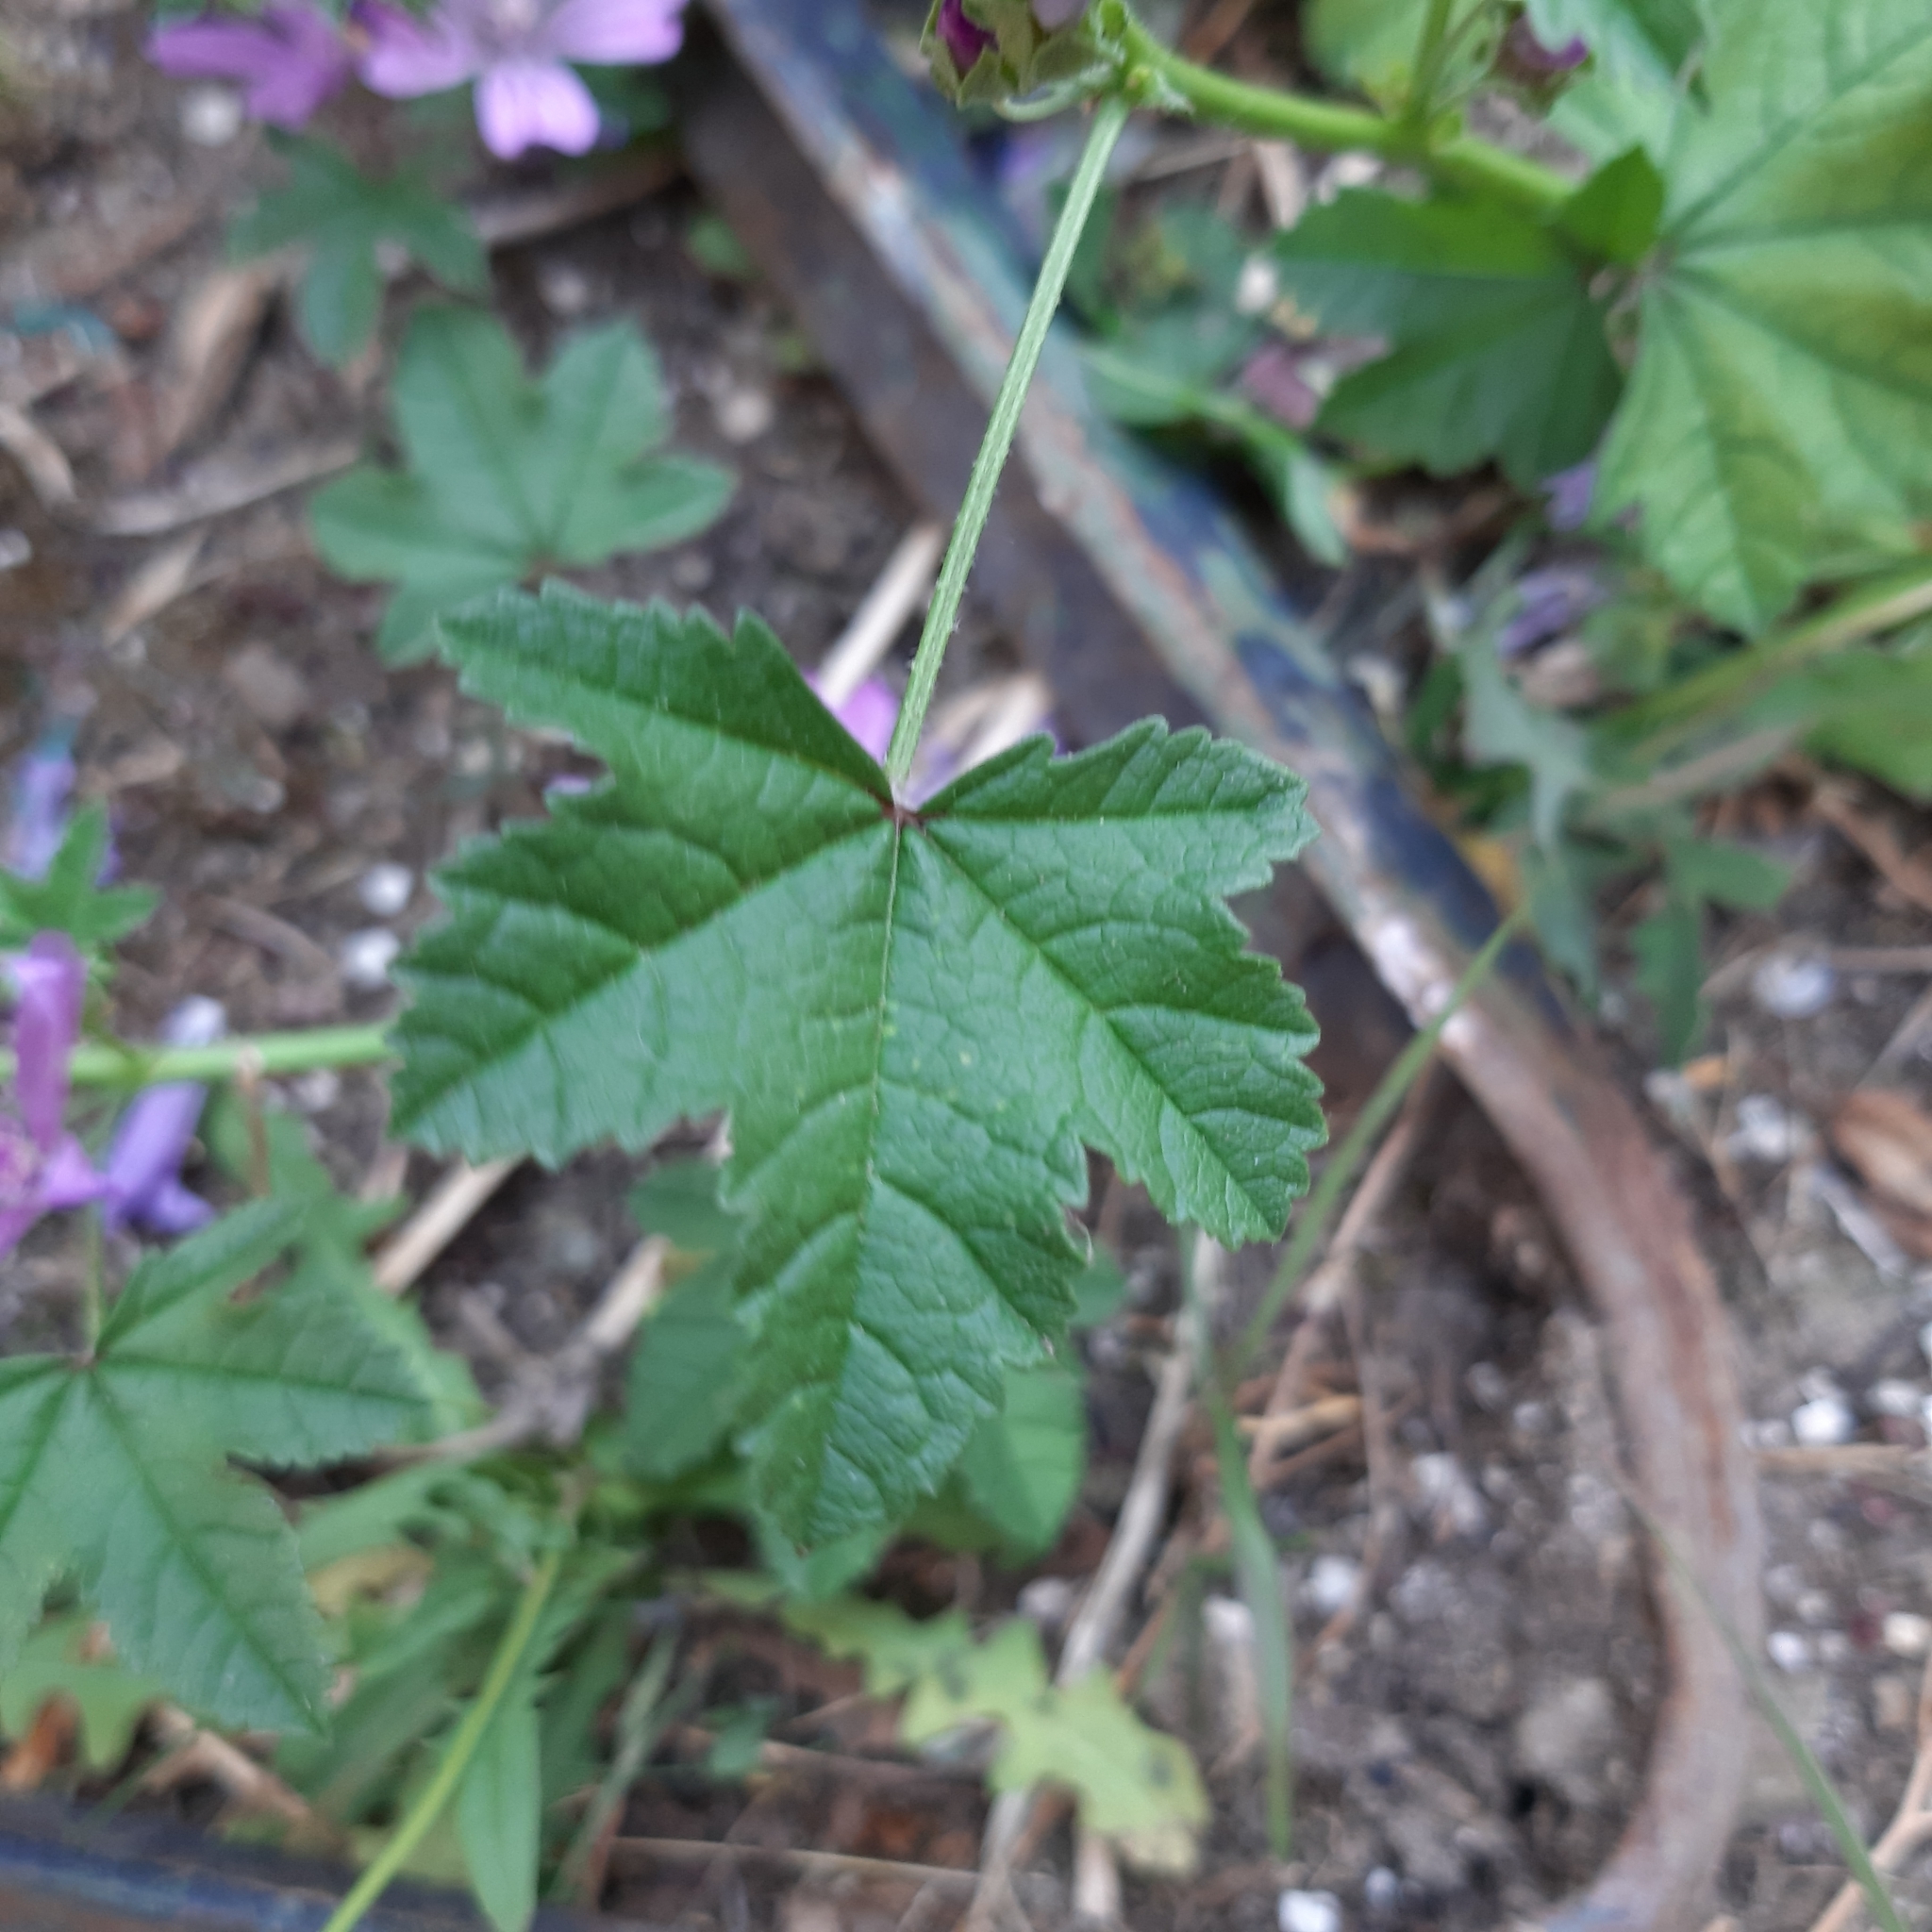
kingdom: Plantae
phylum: Tracheophyta
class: Magnoliopsida
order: Malvales
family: Malvaceae
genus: Malva
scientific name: Malva sylvestris
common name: Common mallow
